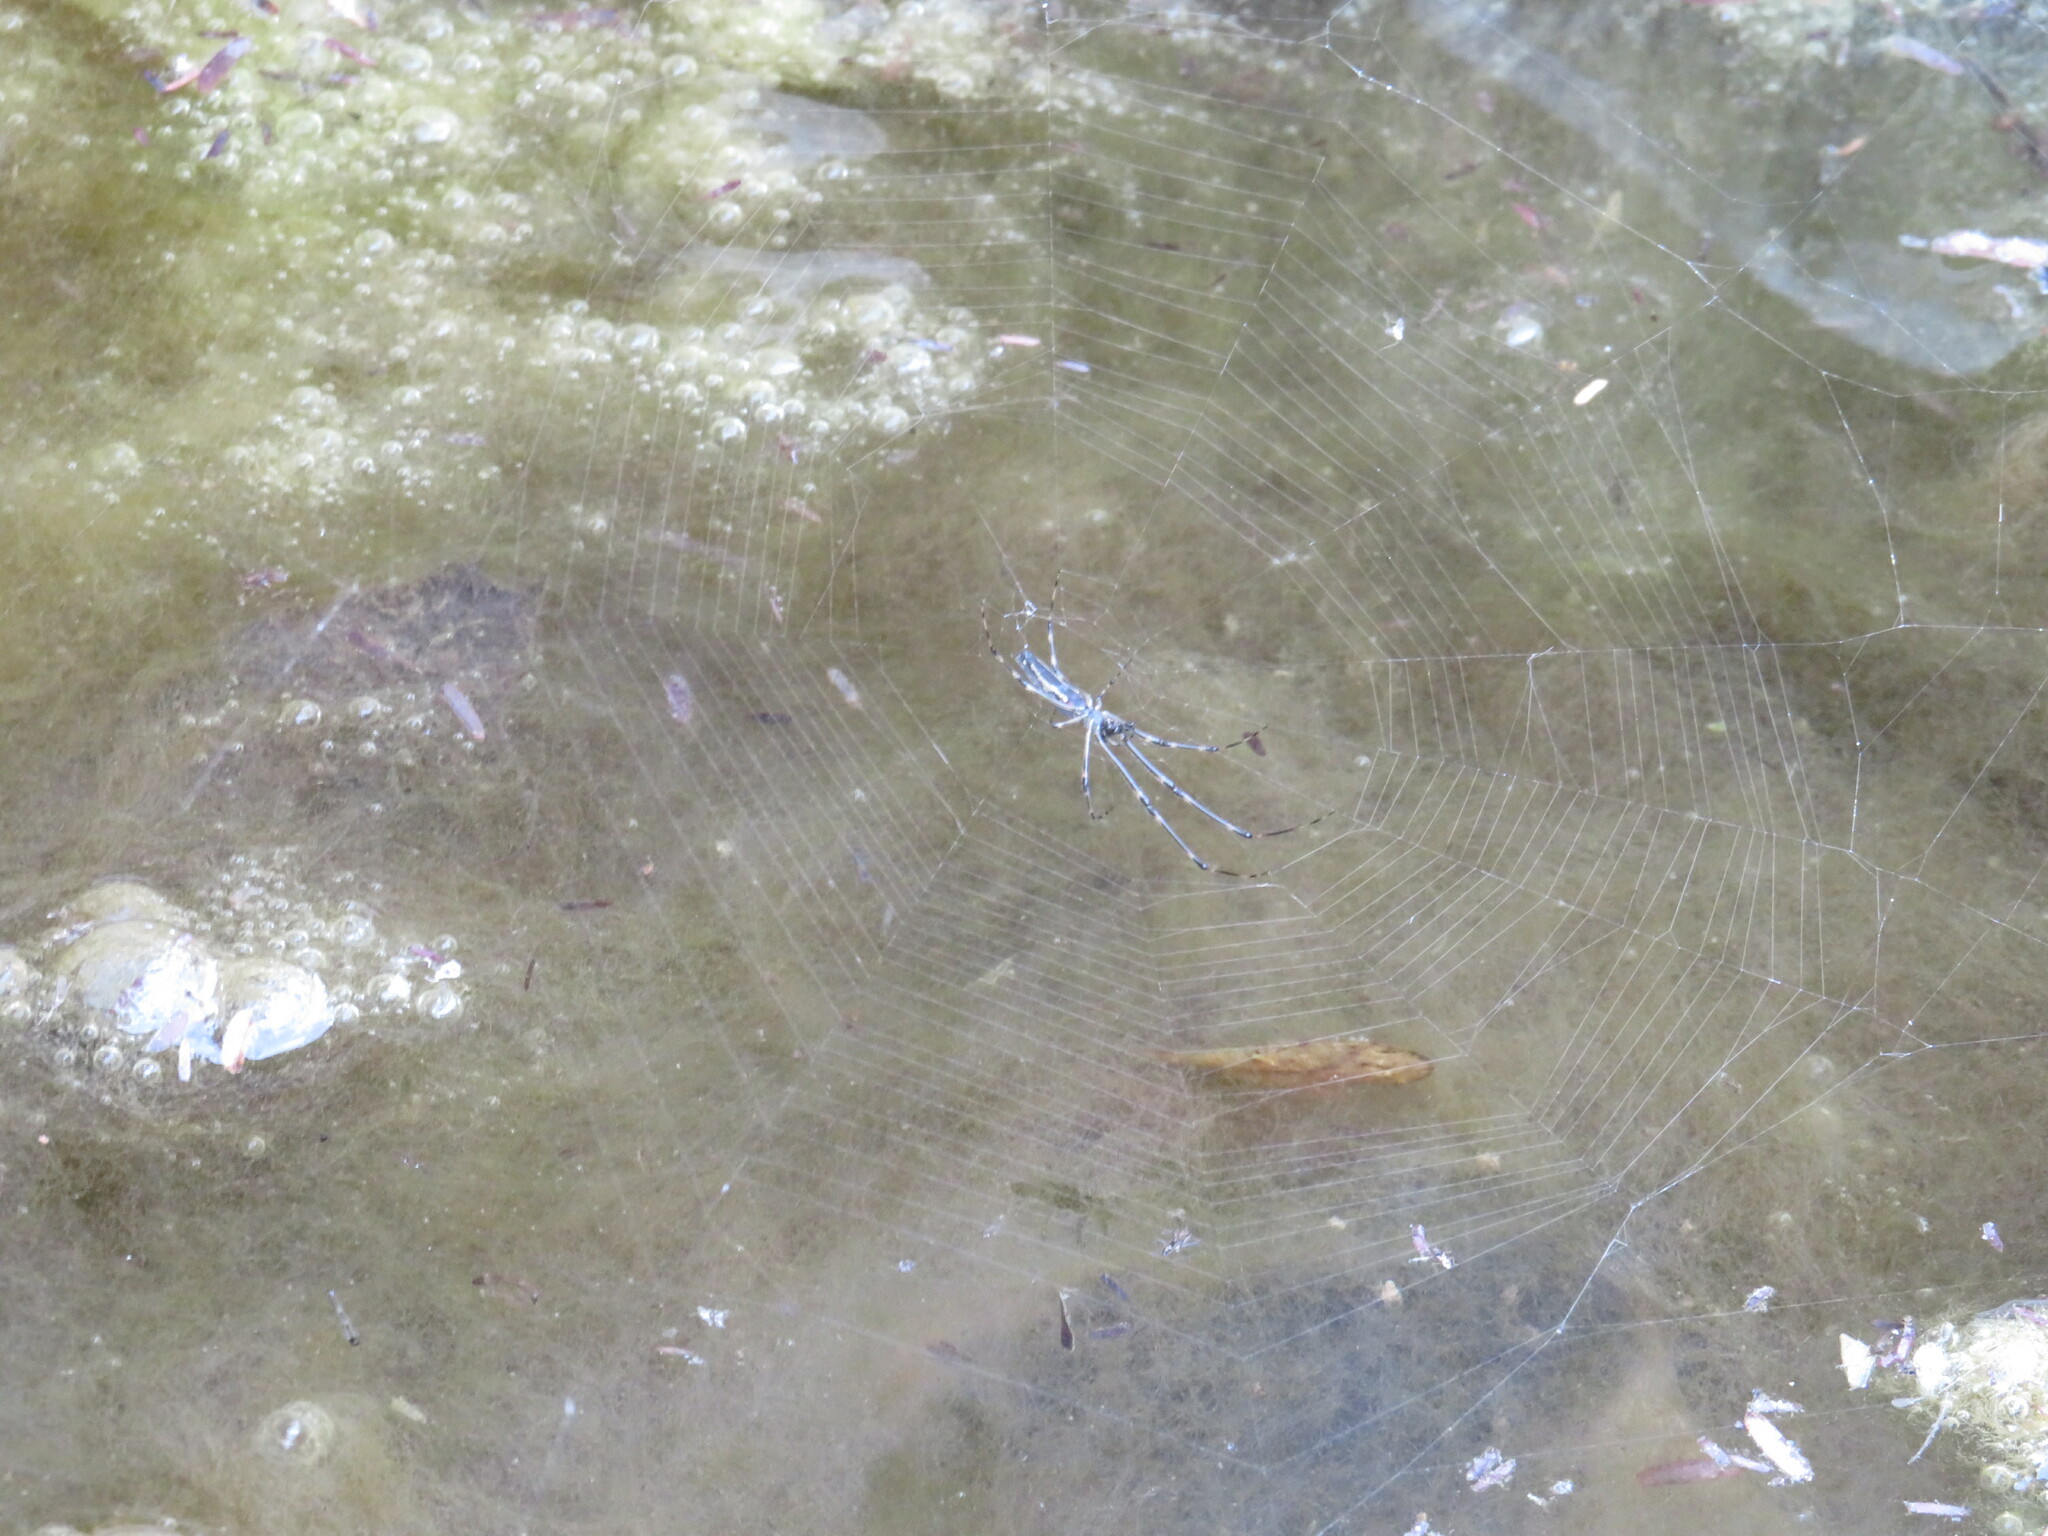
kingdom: Animalia
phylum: Arthropoda
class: Arachnida
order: Araneae
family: Tetragnathidae
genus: Tetragnatha
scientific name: Tetragnatha
